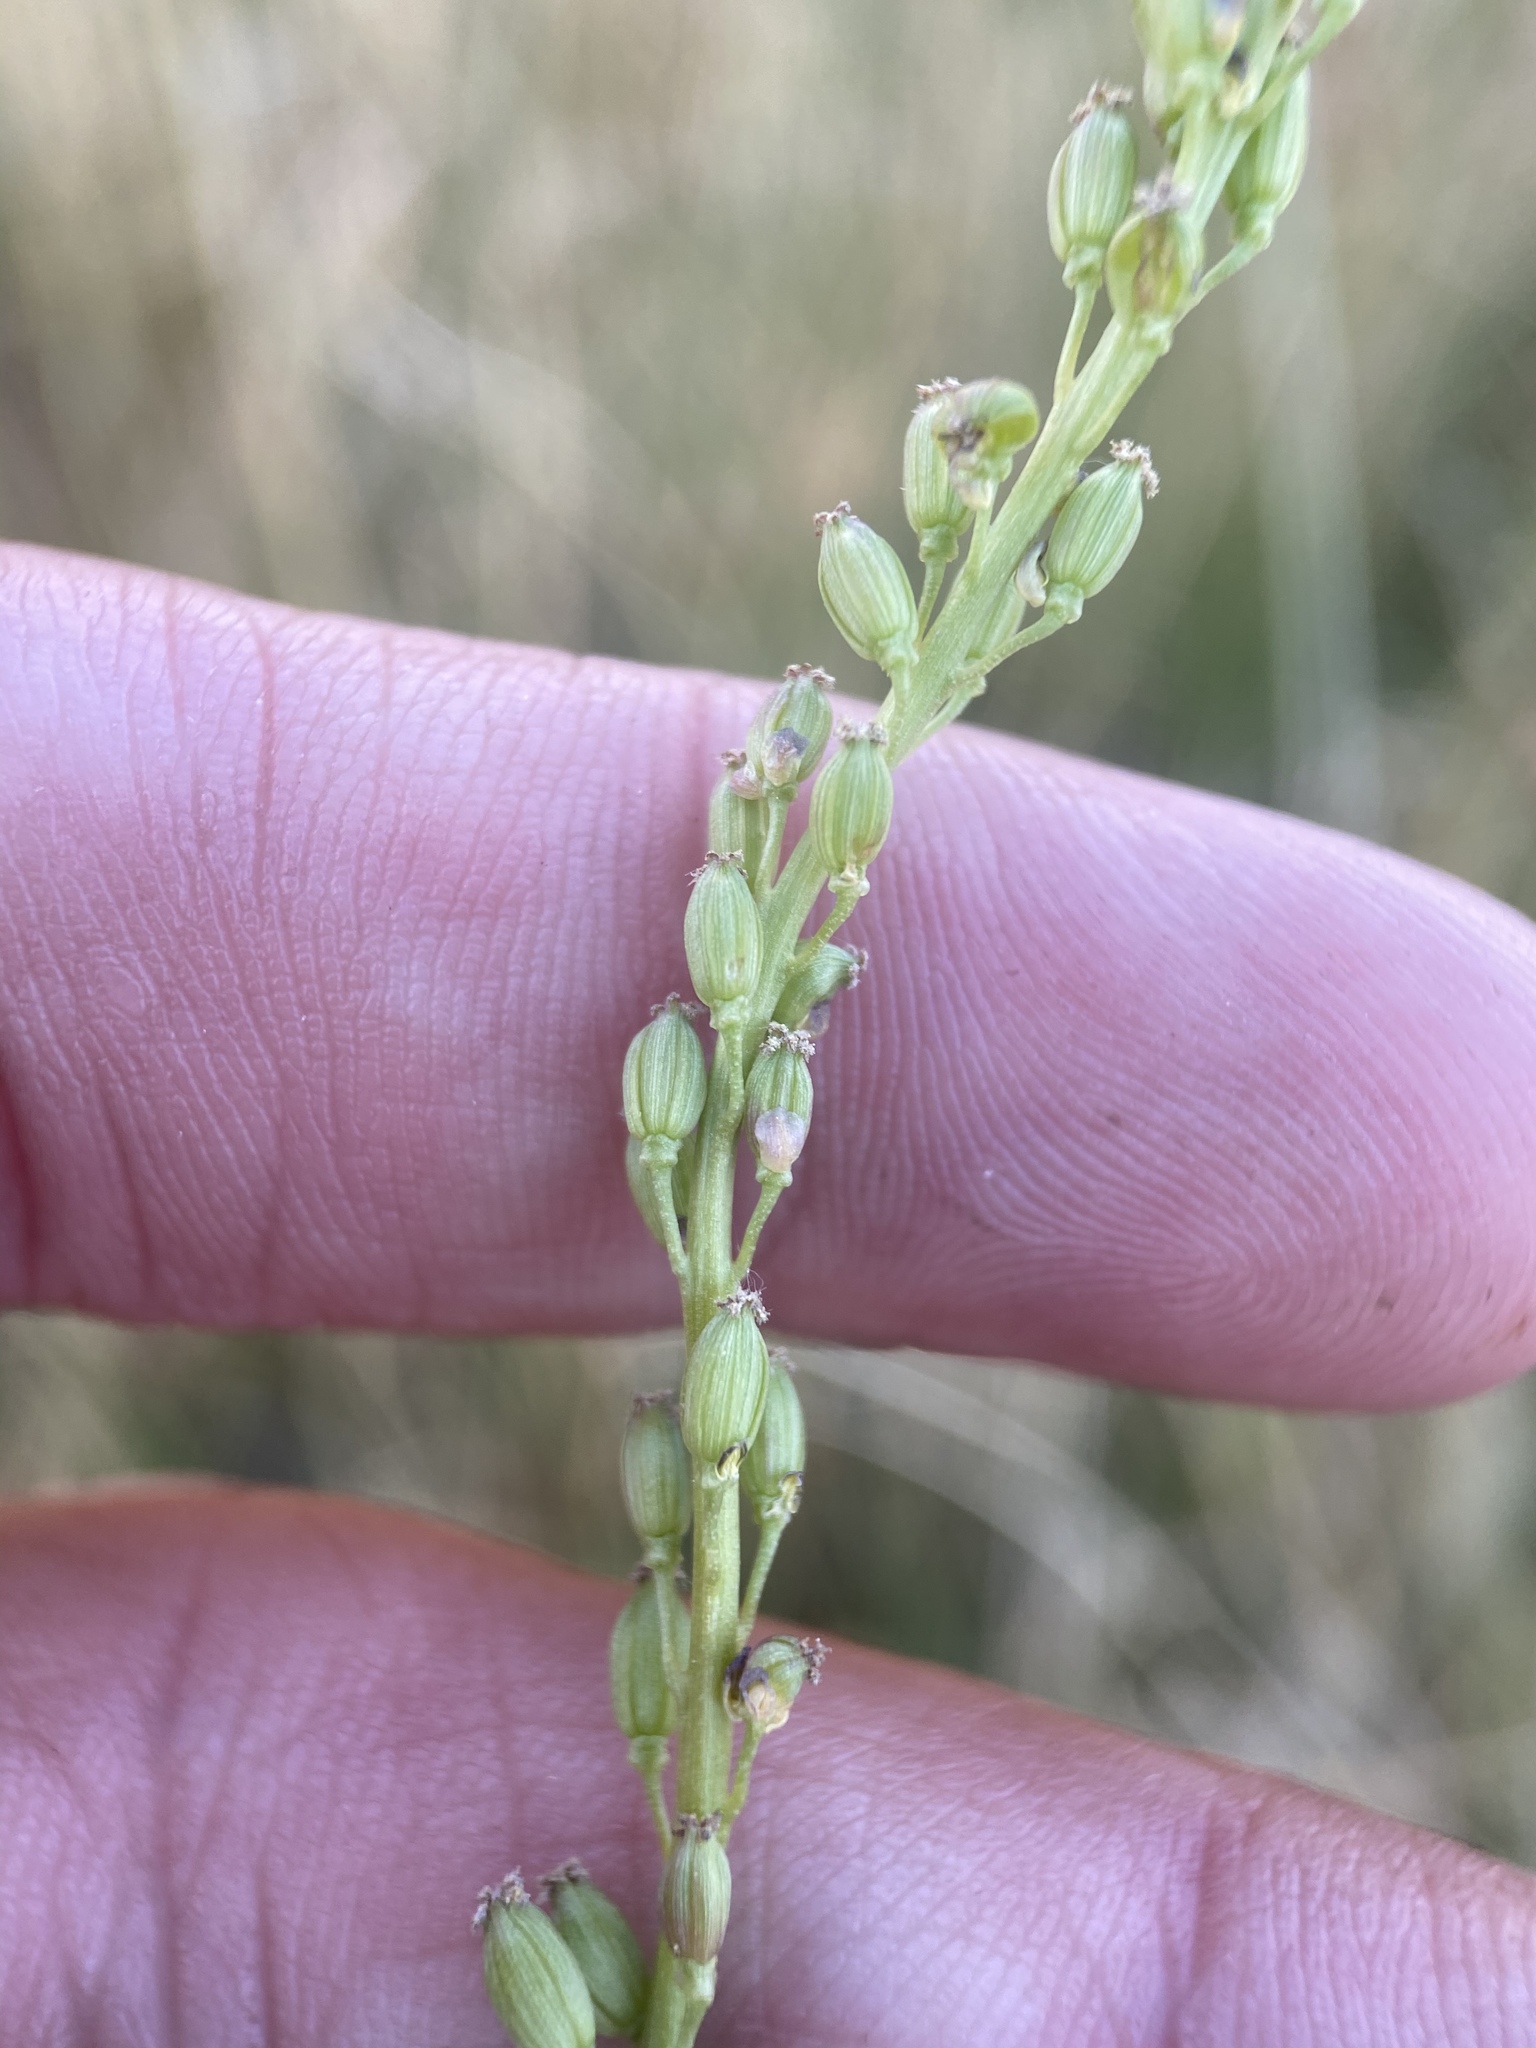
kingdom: Plantae
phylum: Tracheophyta
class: Liliopsida
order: Alismatales
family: Juncaginaceae
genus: Triglochin
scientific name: Triglochin maritima
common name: Sea arrowgrass
